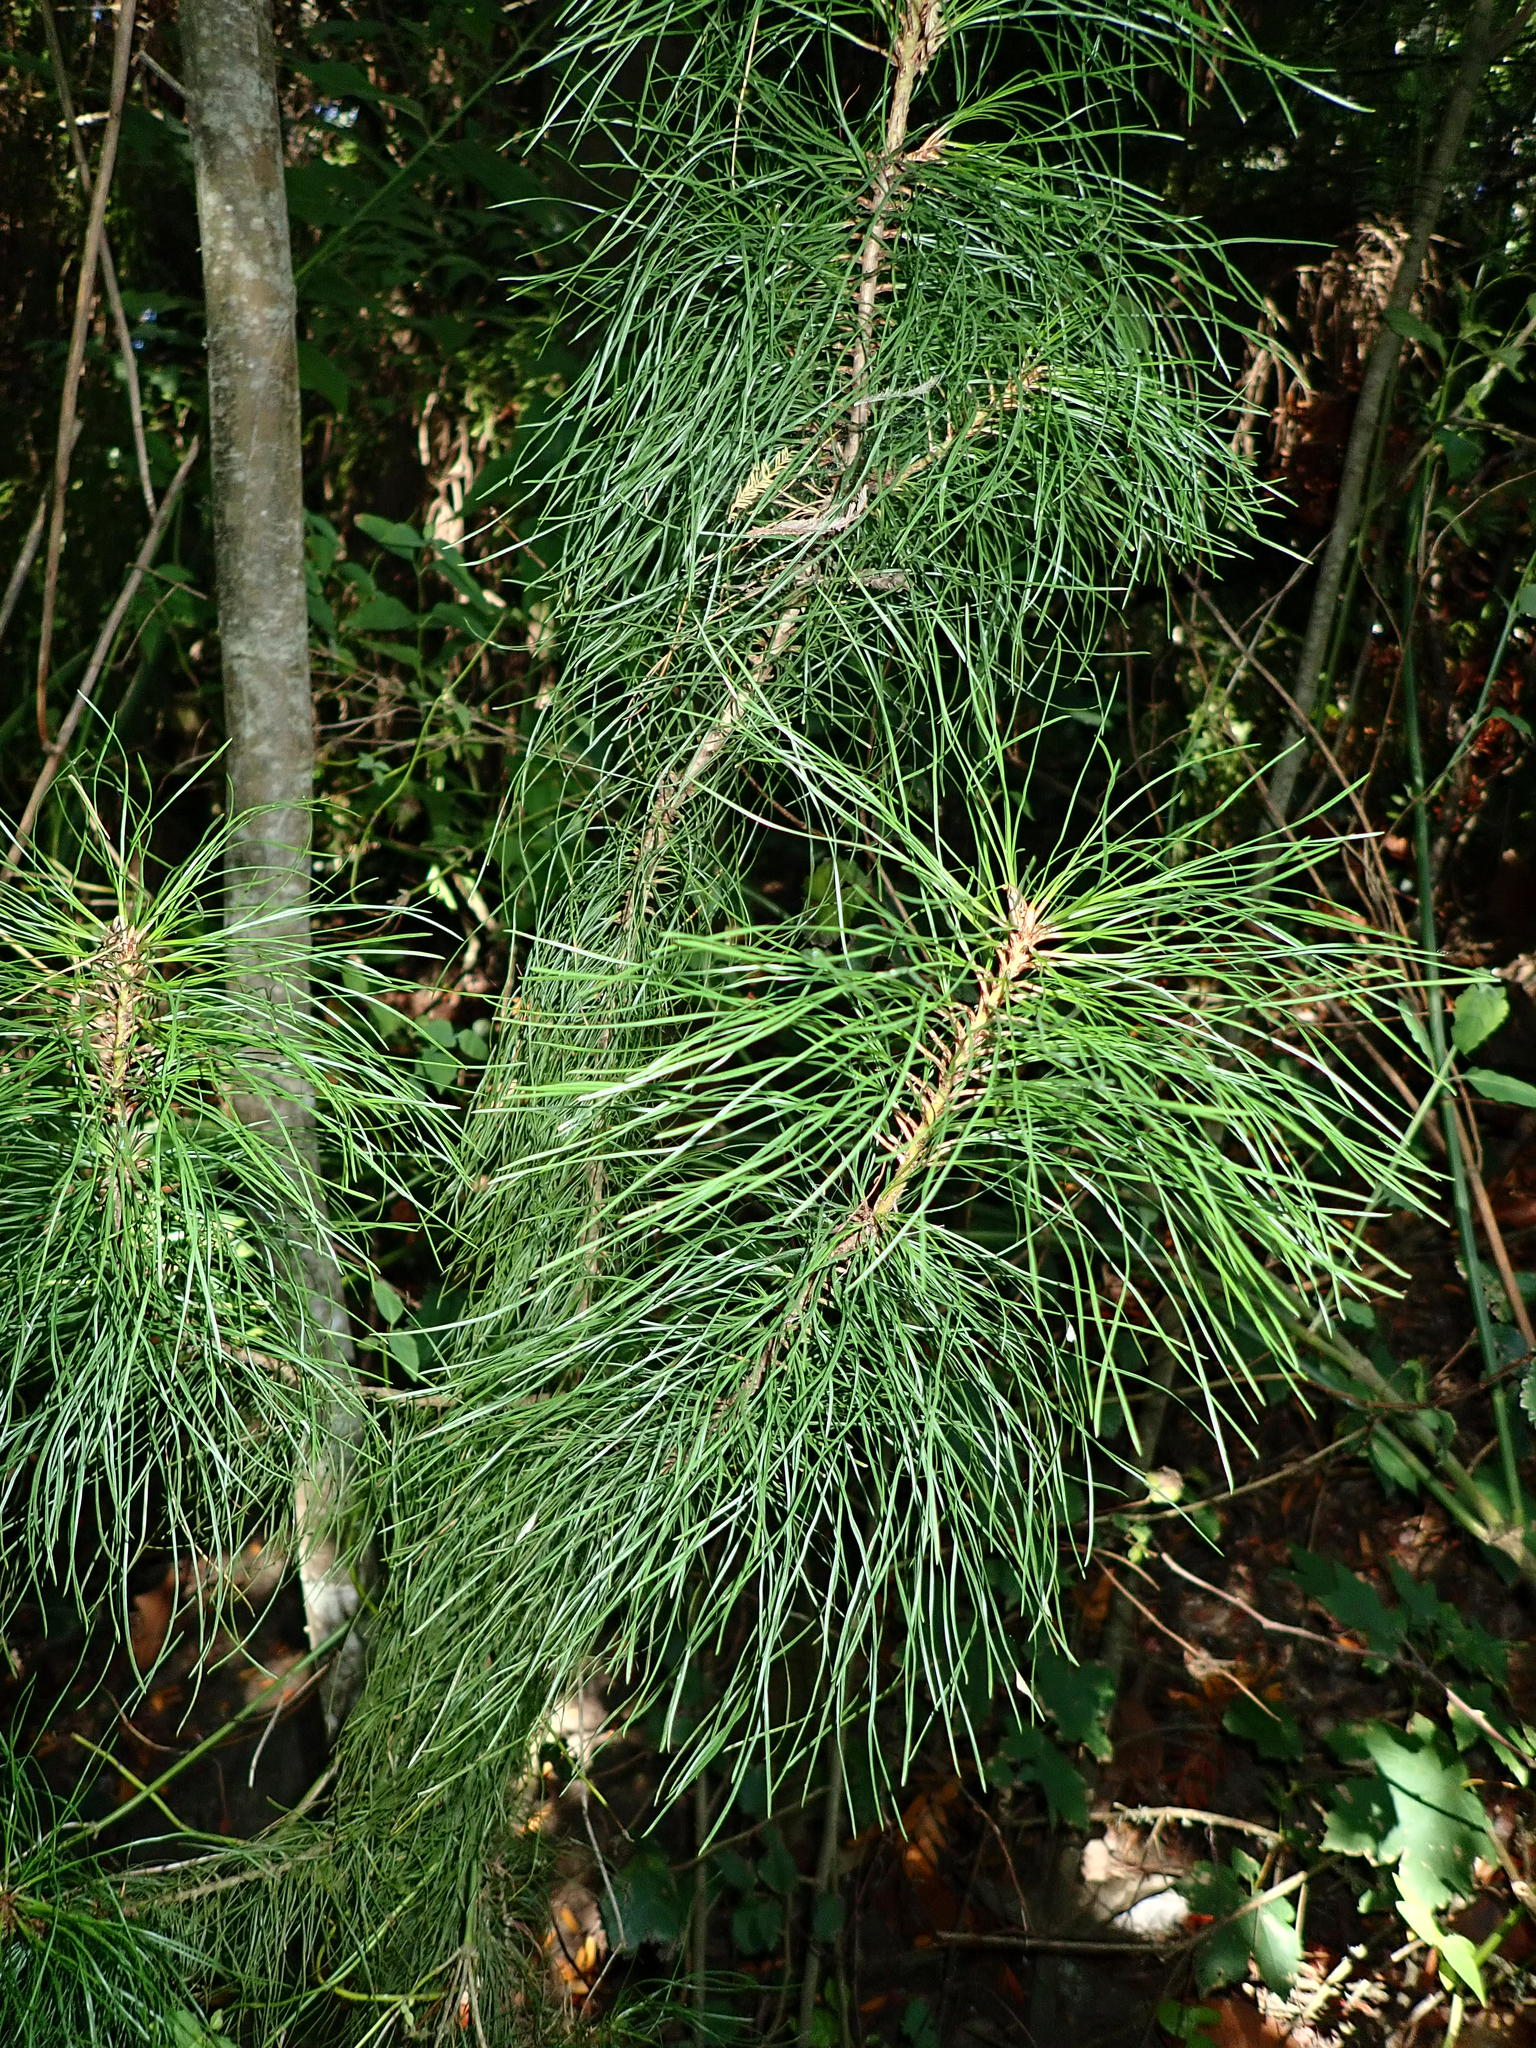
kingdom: Plantae
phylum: Tracheophyta
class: Pinopsida
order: Pinales
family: Pinaceae
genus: Pinus
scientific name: Pinus radiata
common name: Monterey pine
